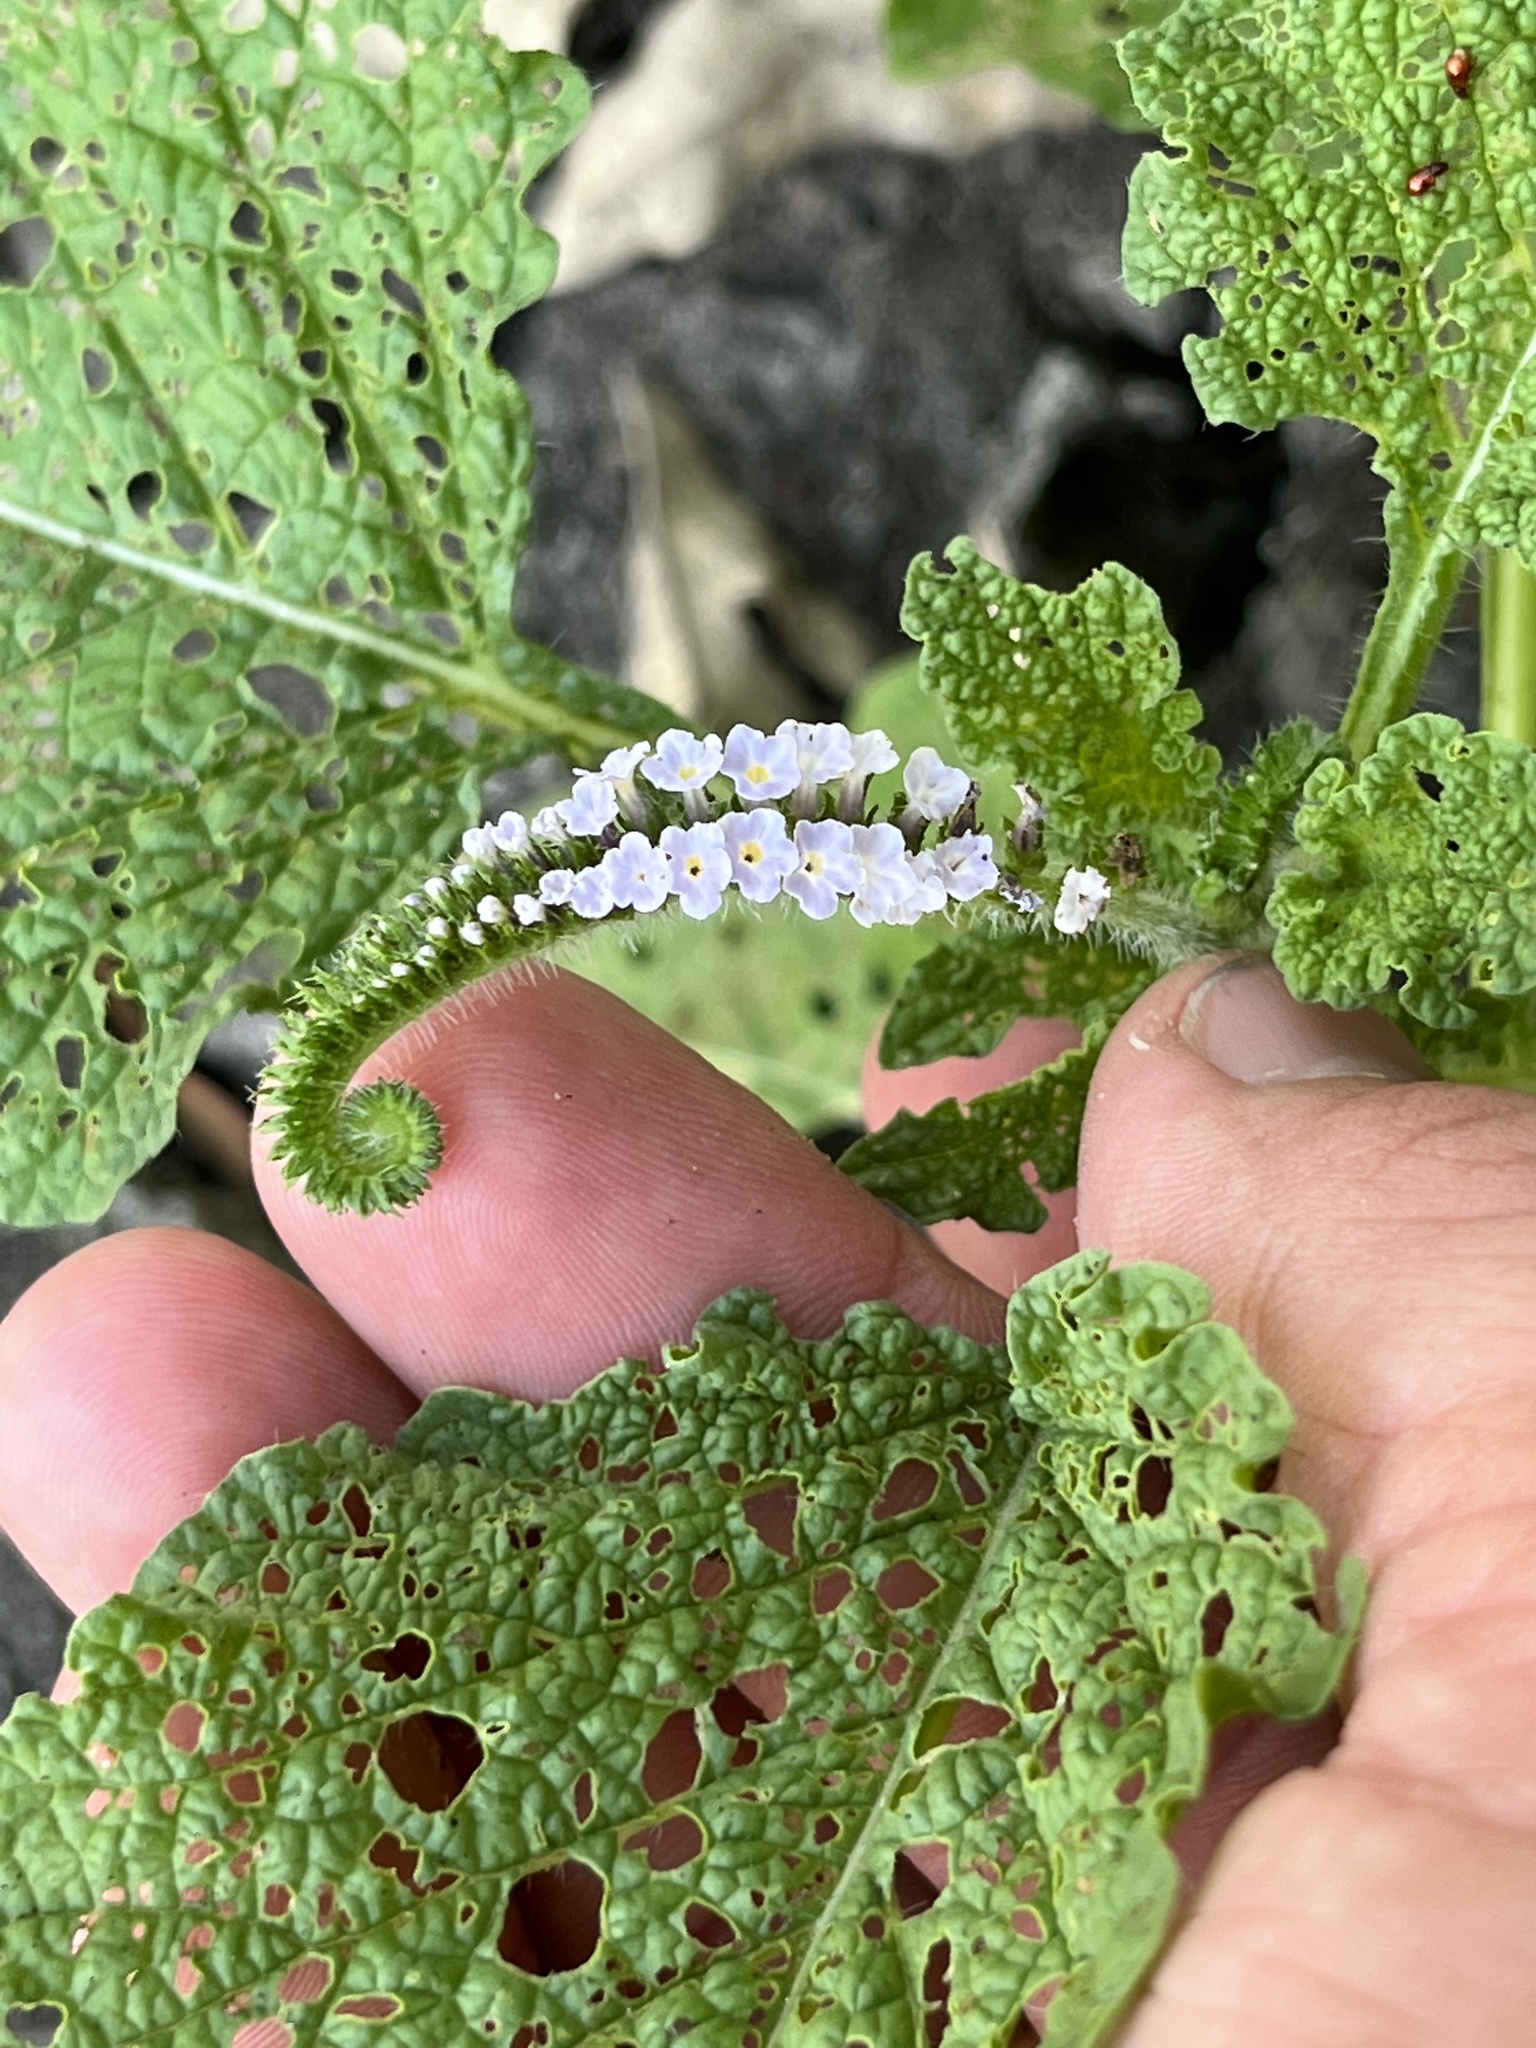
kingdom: Plantae
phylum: Tracheophyta
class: Magnoliopsida
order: Boraginales
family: Heliotropiaceae
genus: Heliotropium
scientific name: Heliotropium indicum
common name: Indian heliotrope
